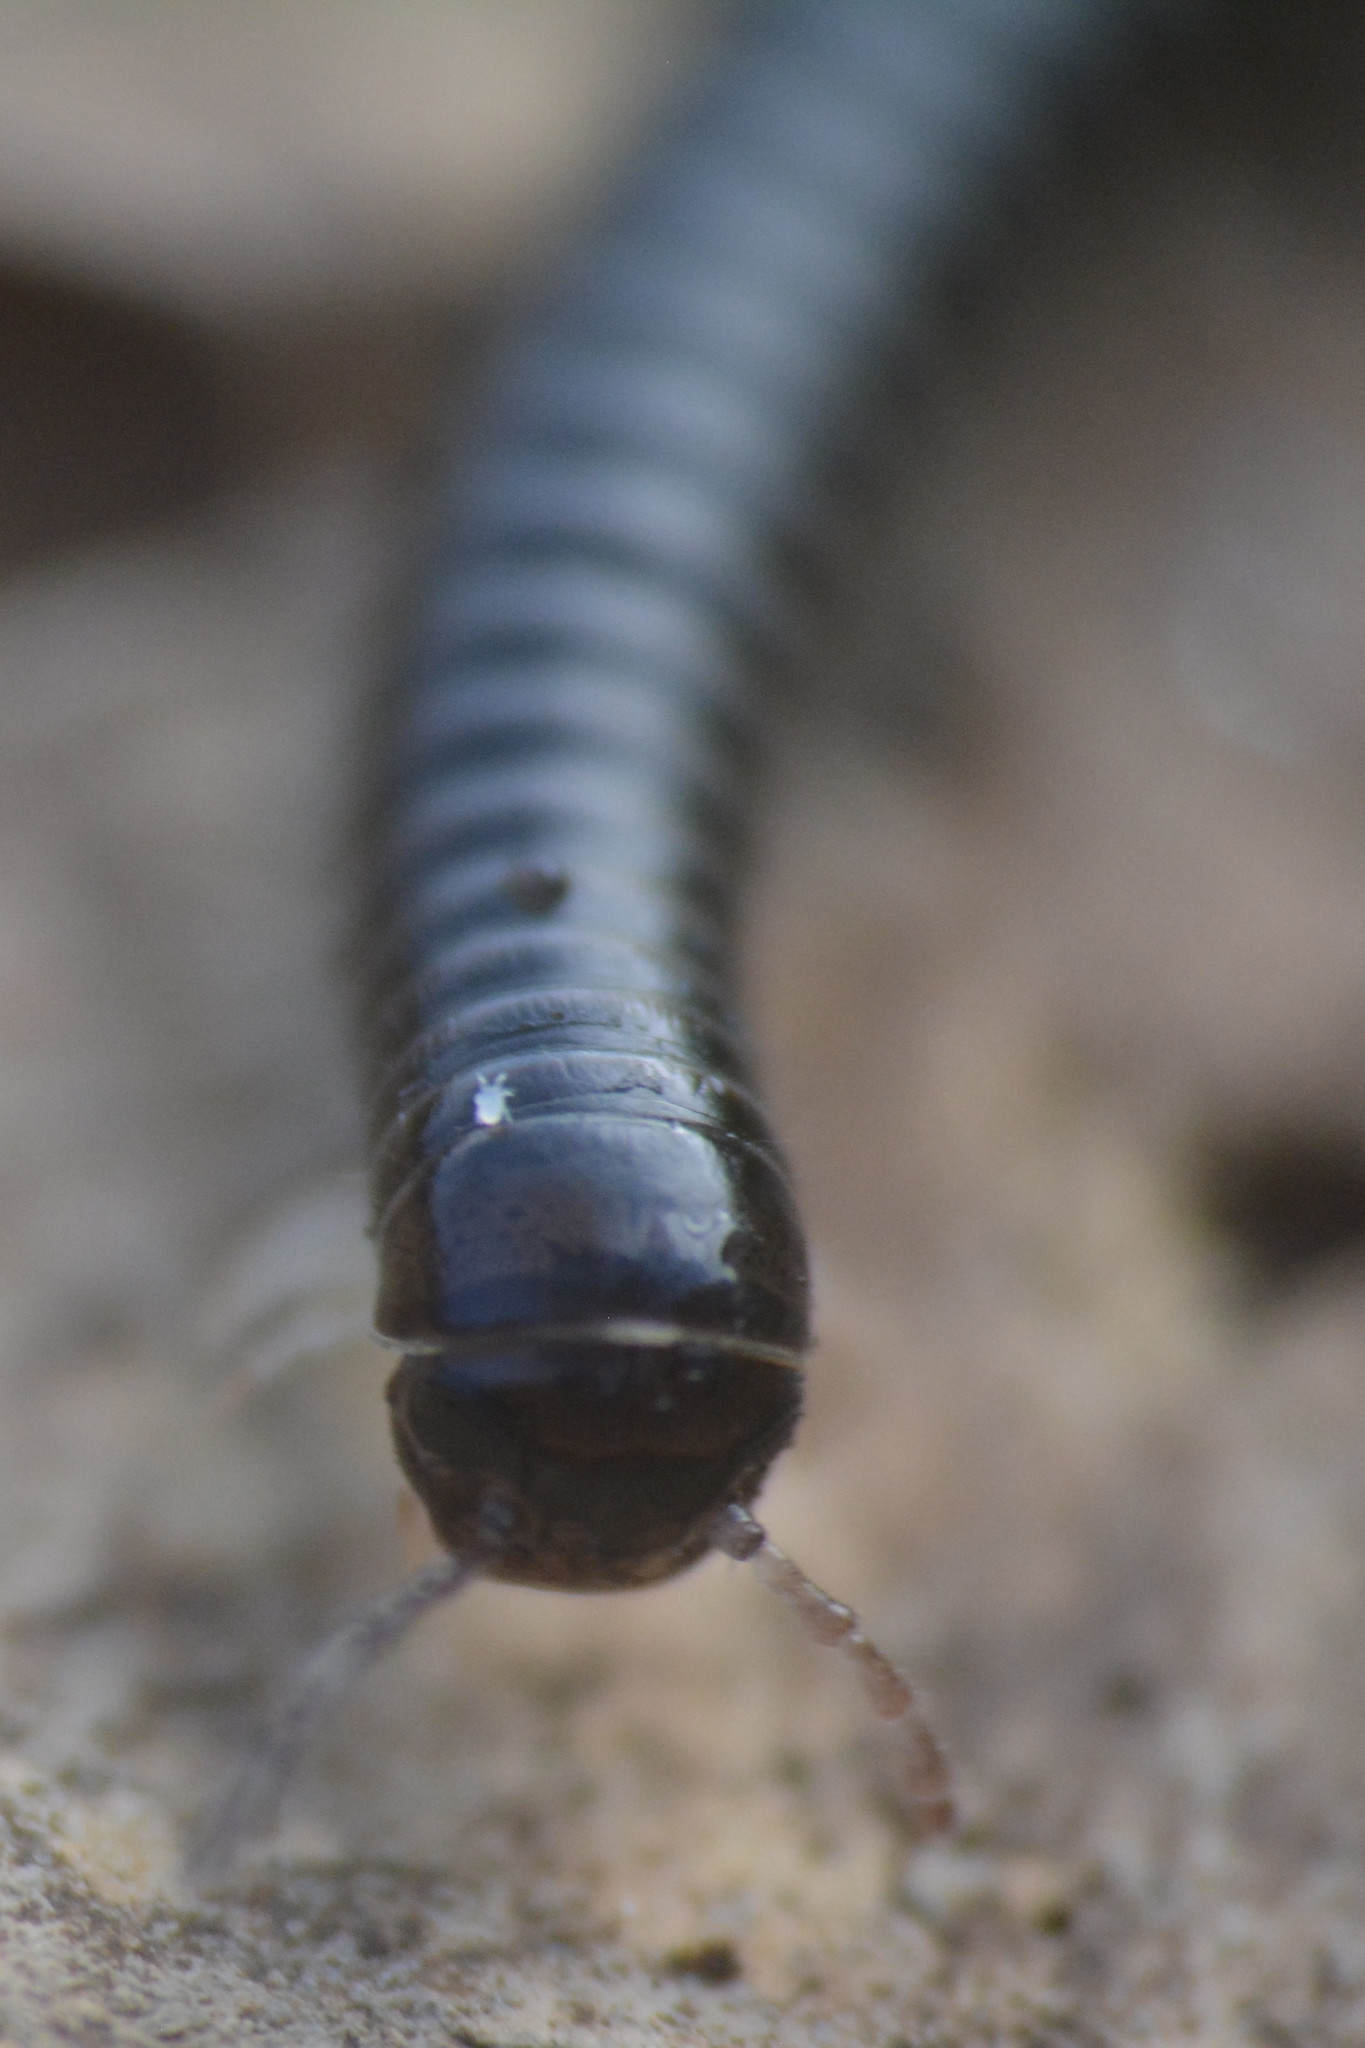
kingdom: Animalia
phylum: Arthropoda
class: Diplopoda
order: Julida
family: Julidae
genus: Tachypodoiulus
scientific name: Tachypodoiulus niger
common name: White-legged snake millipede
